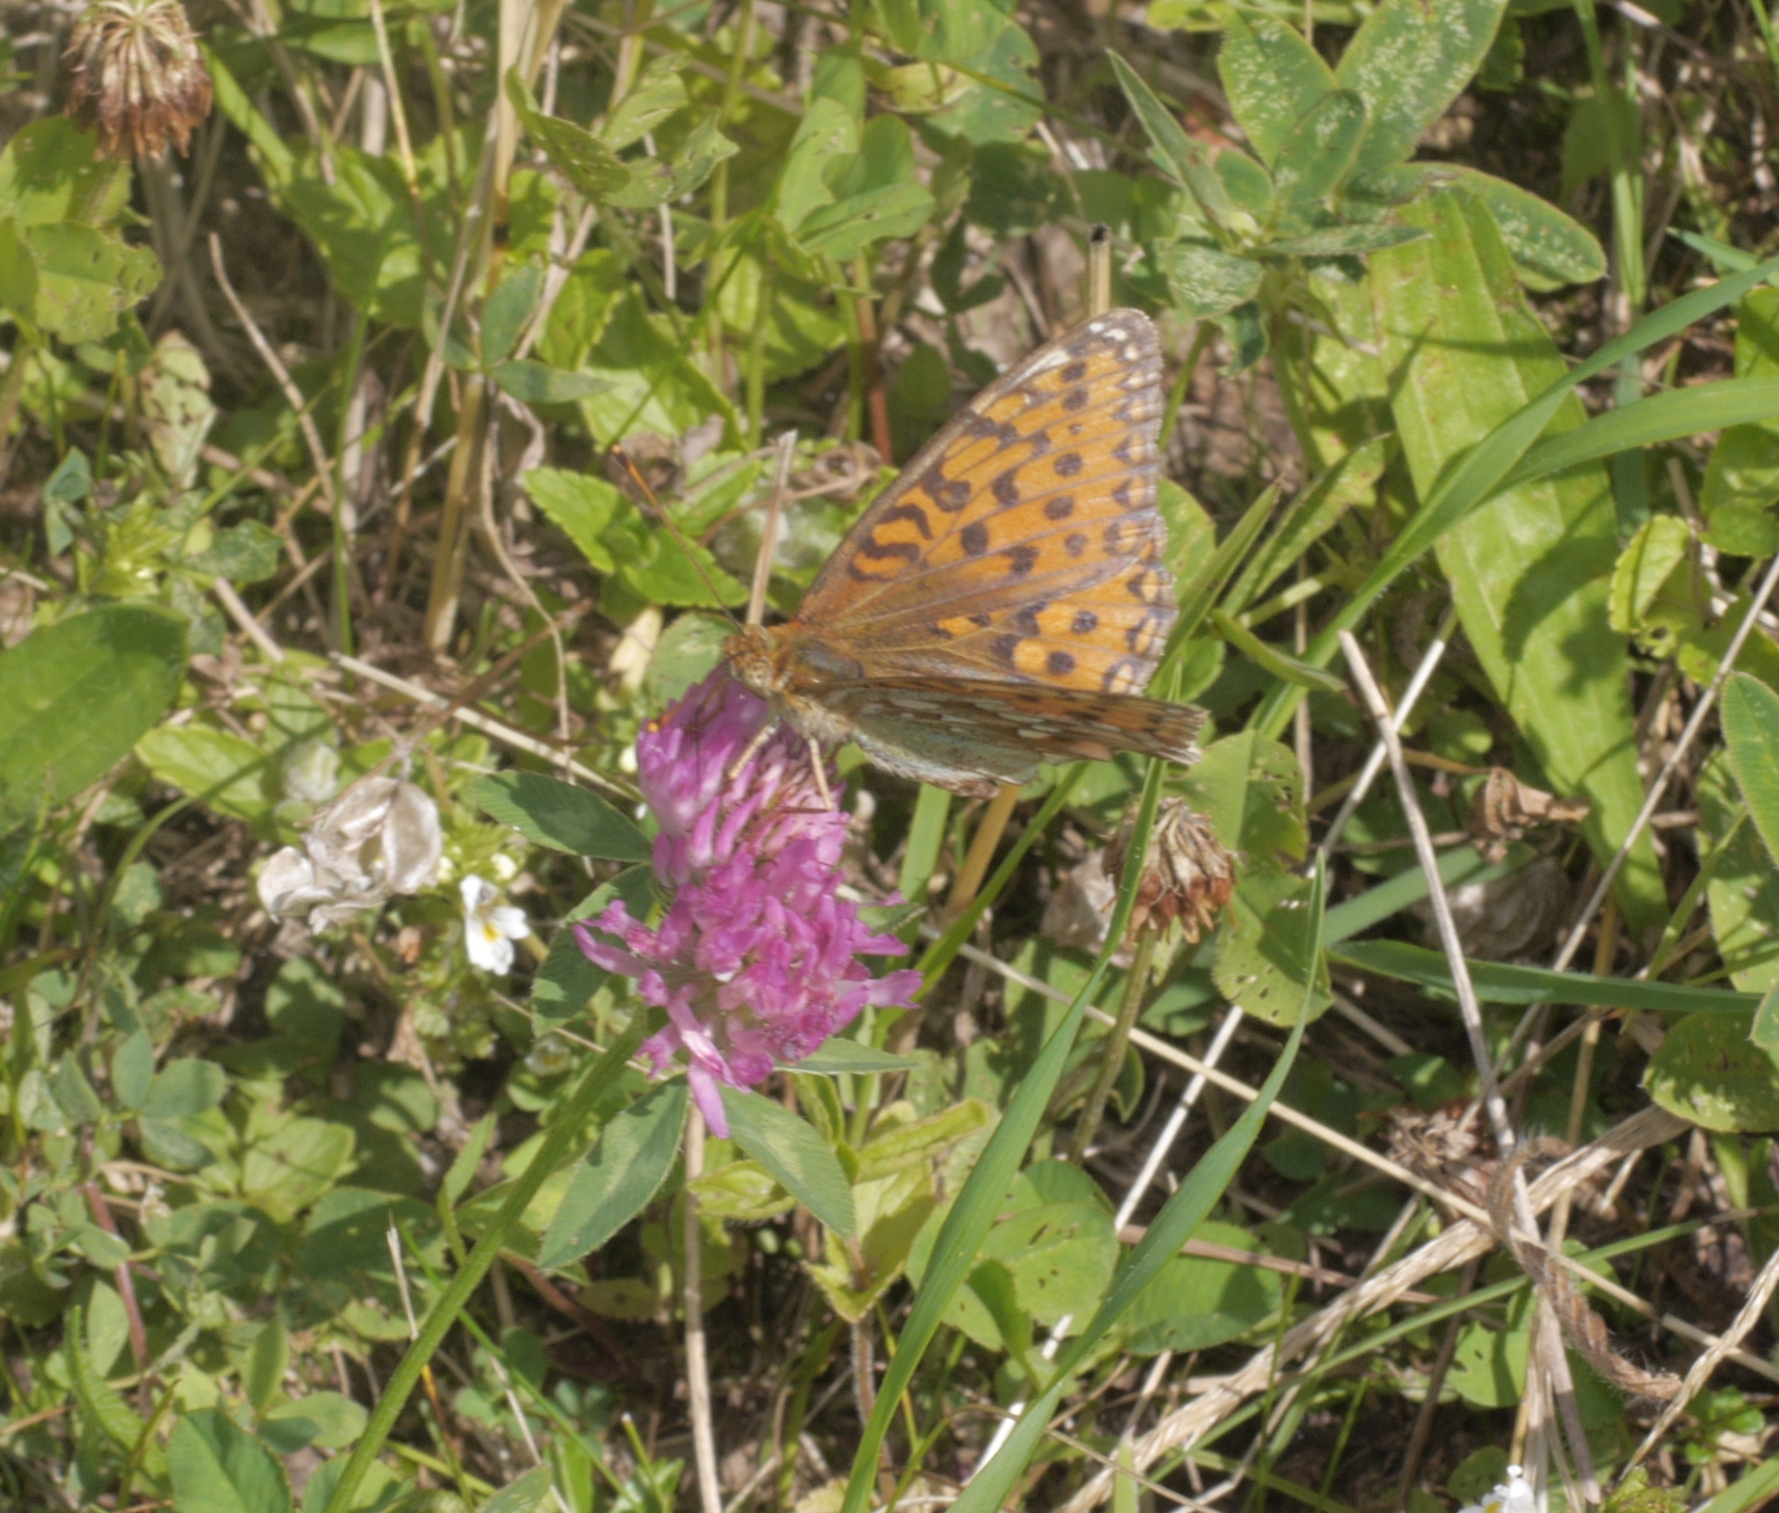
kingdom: Animalia
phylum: Arthropoda
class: Insecta
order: Lepidoptera
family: Nymphalidae
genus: Speyeria
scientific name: Speyeria aglaja
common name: Dark green fritillary
